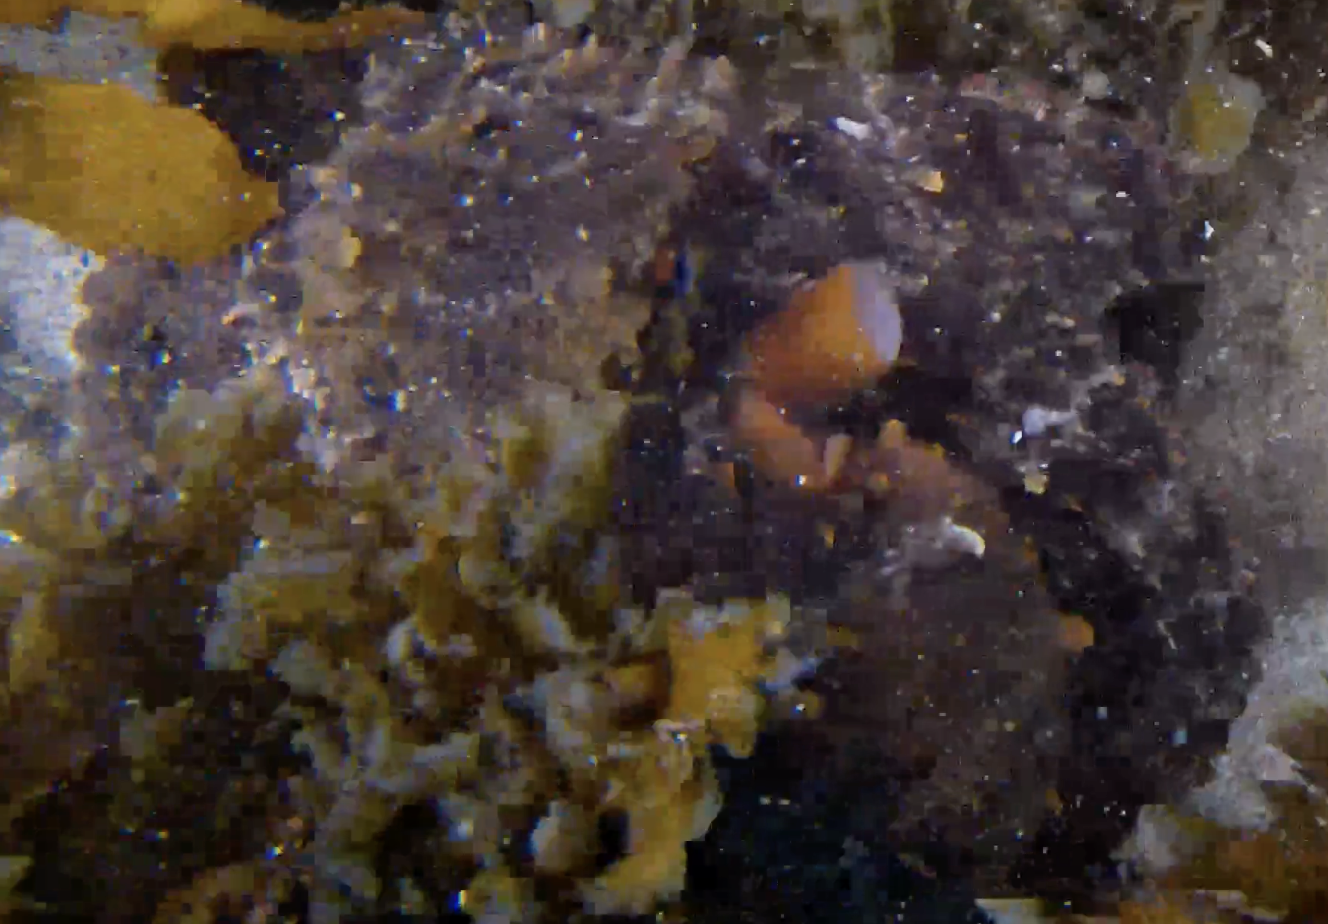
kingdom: Animalia
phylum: Mollusca
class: Cephalopoda
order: Octopoda
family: Octopodidae
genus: Octopus
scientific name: Octopus tetricus
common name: Sydney octopus
